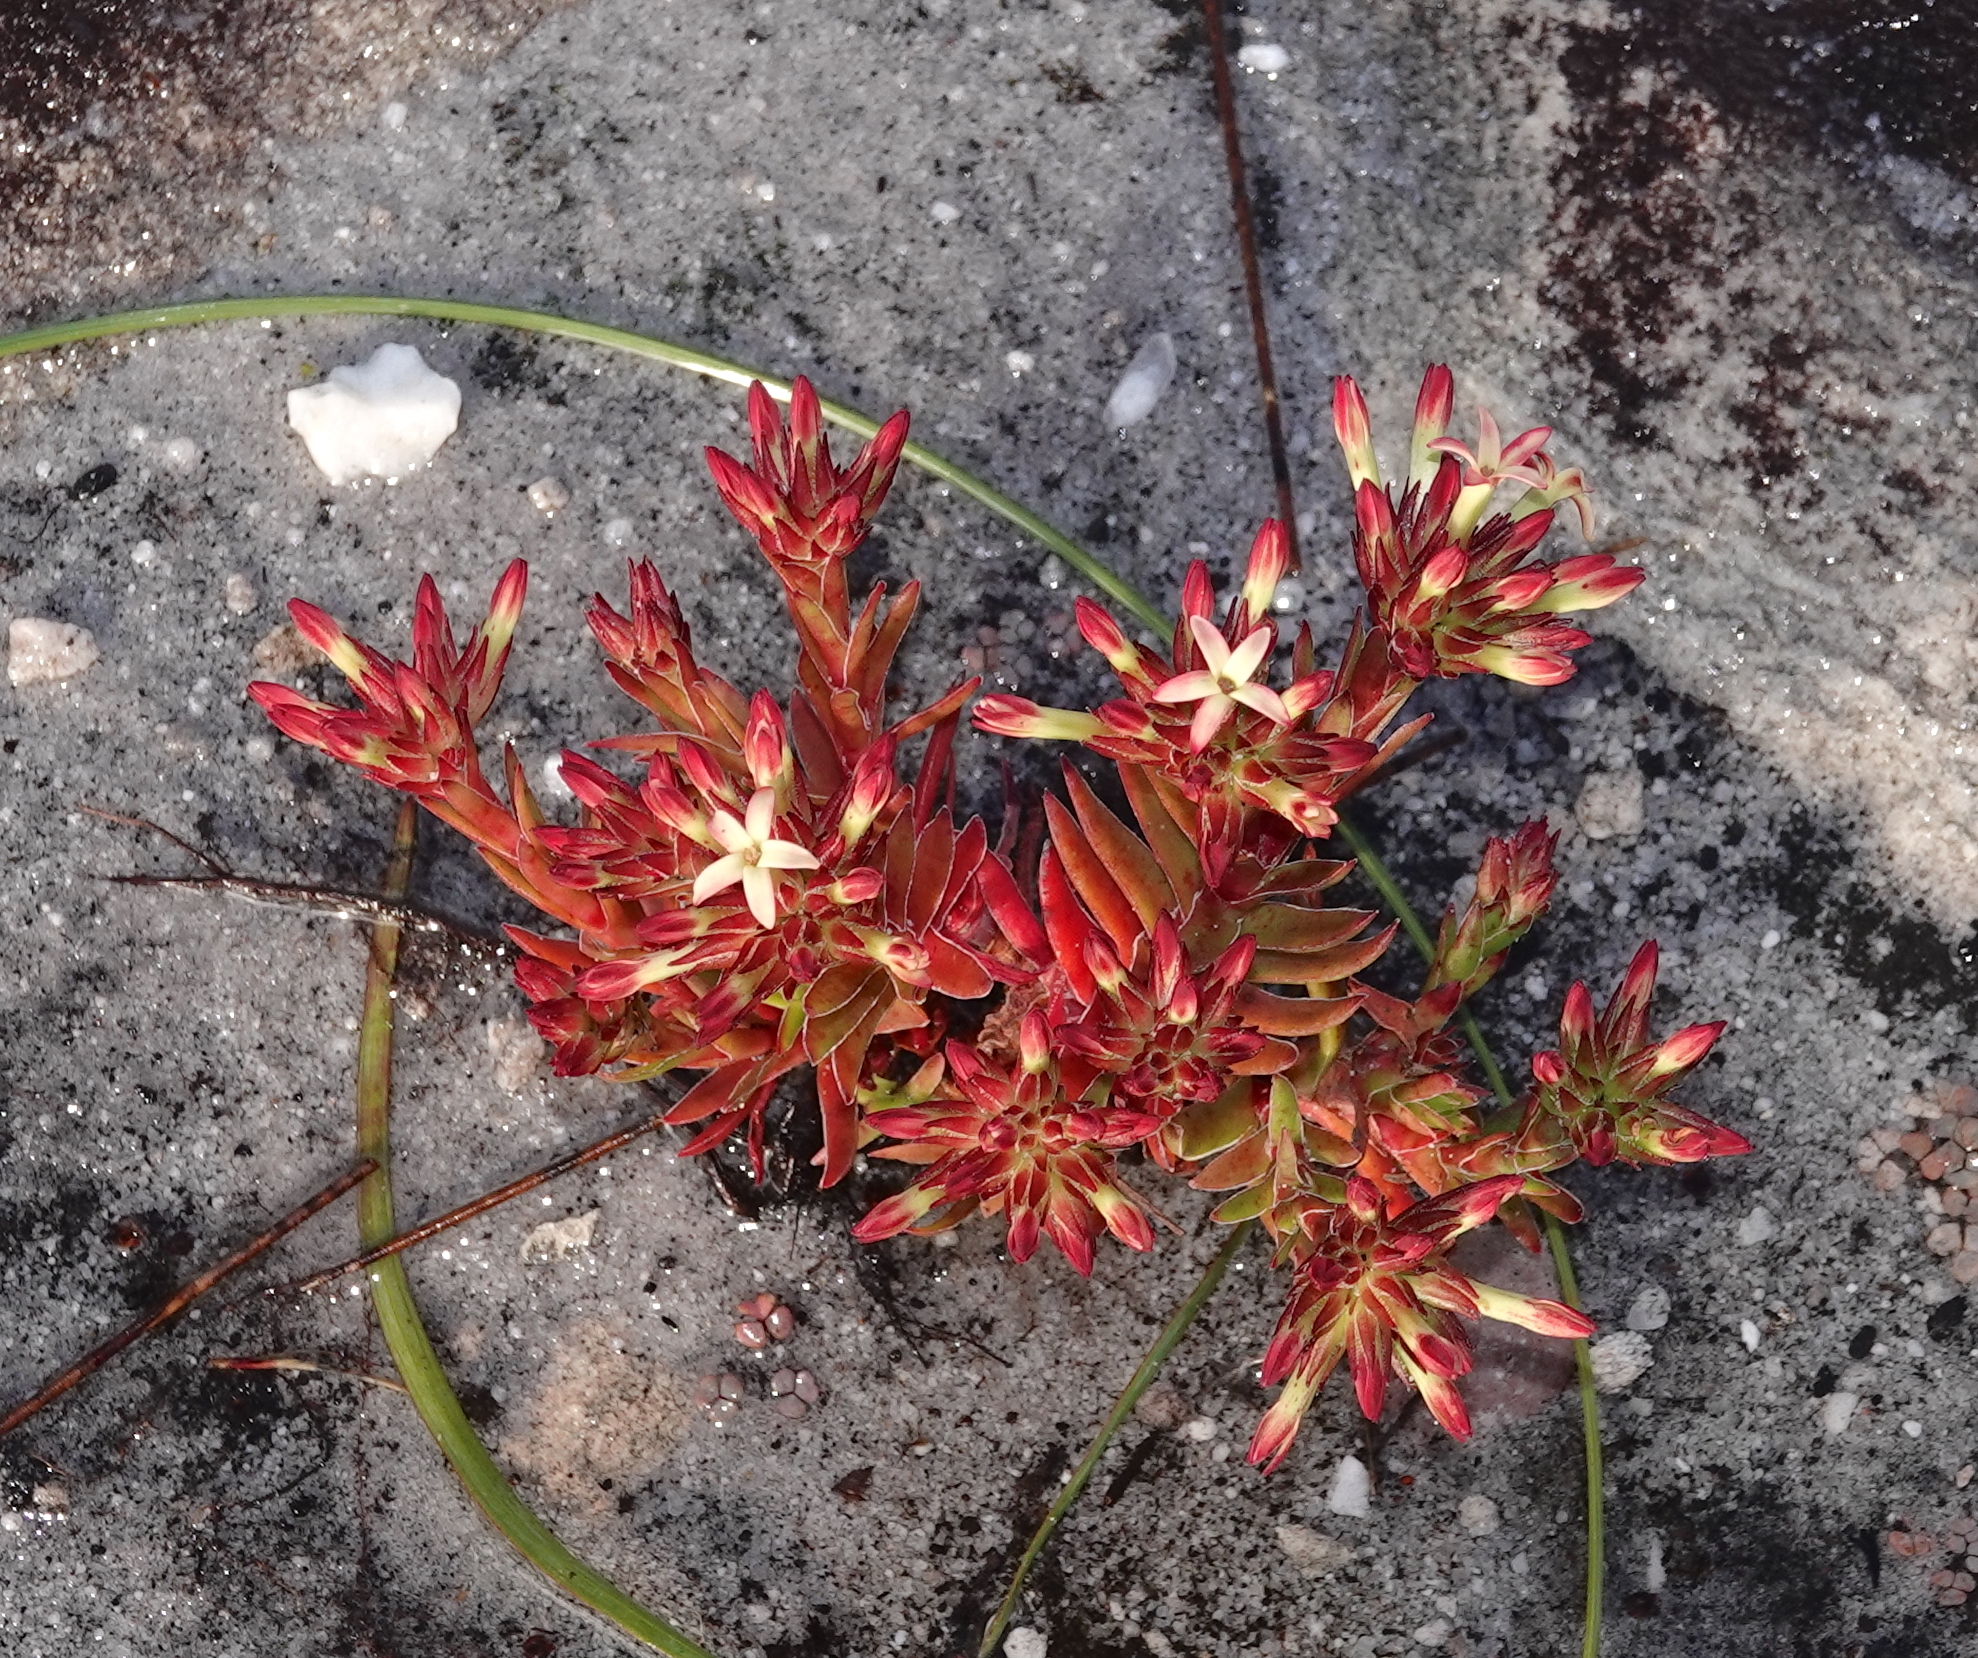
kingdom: Plantae
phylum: Tracheophyta
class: Magnoliopsida
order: Saxifragales
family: Crassulaceae
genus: Crassula
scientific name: Crassula fascicularis
